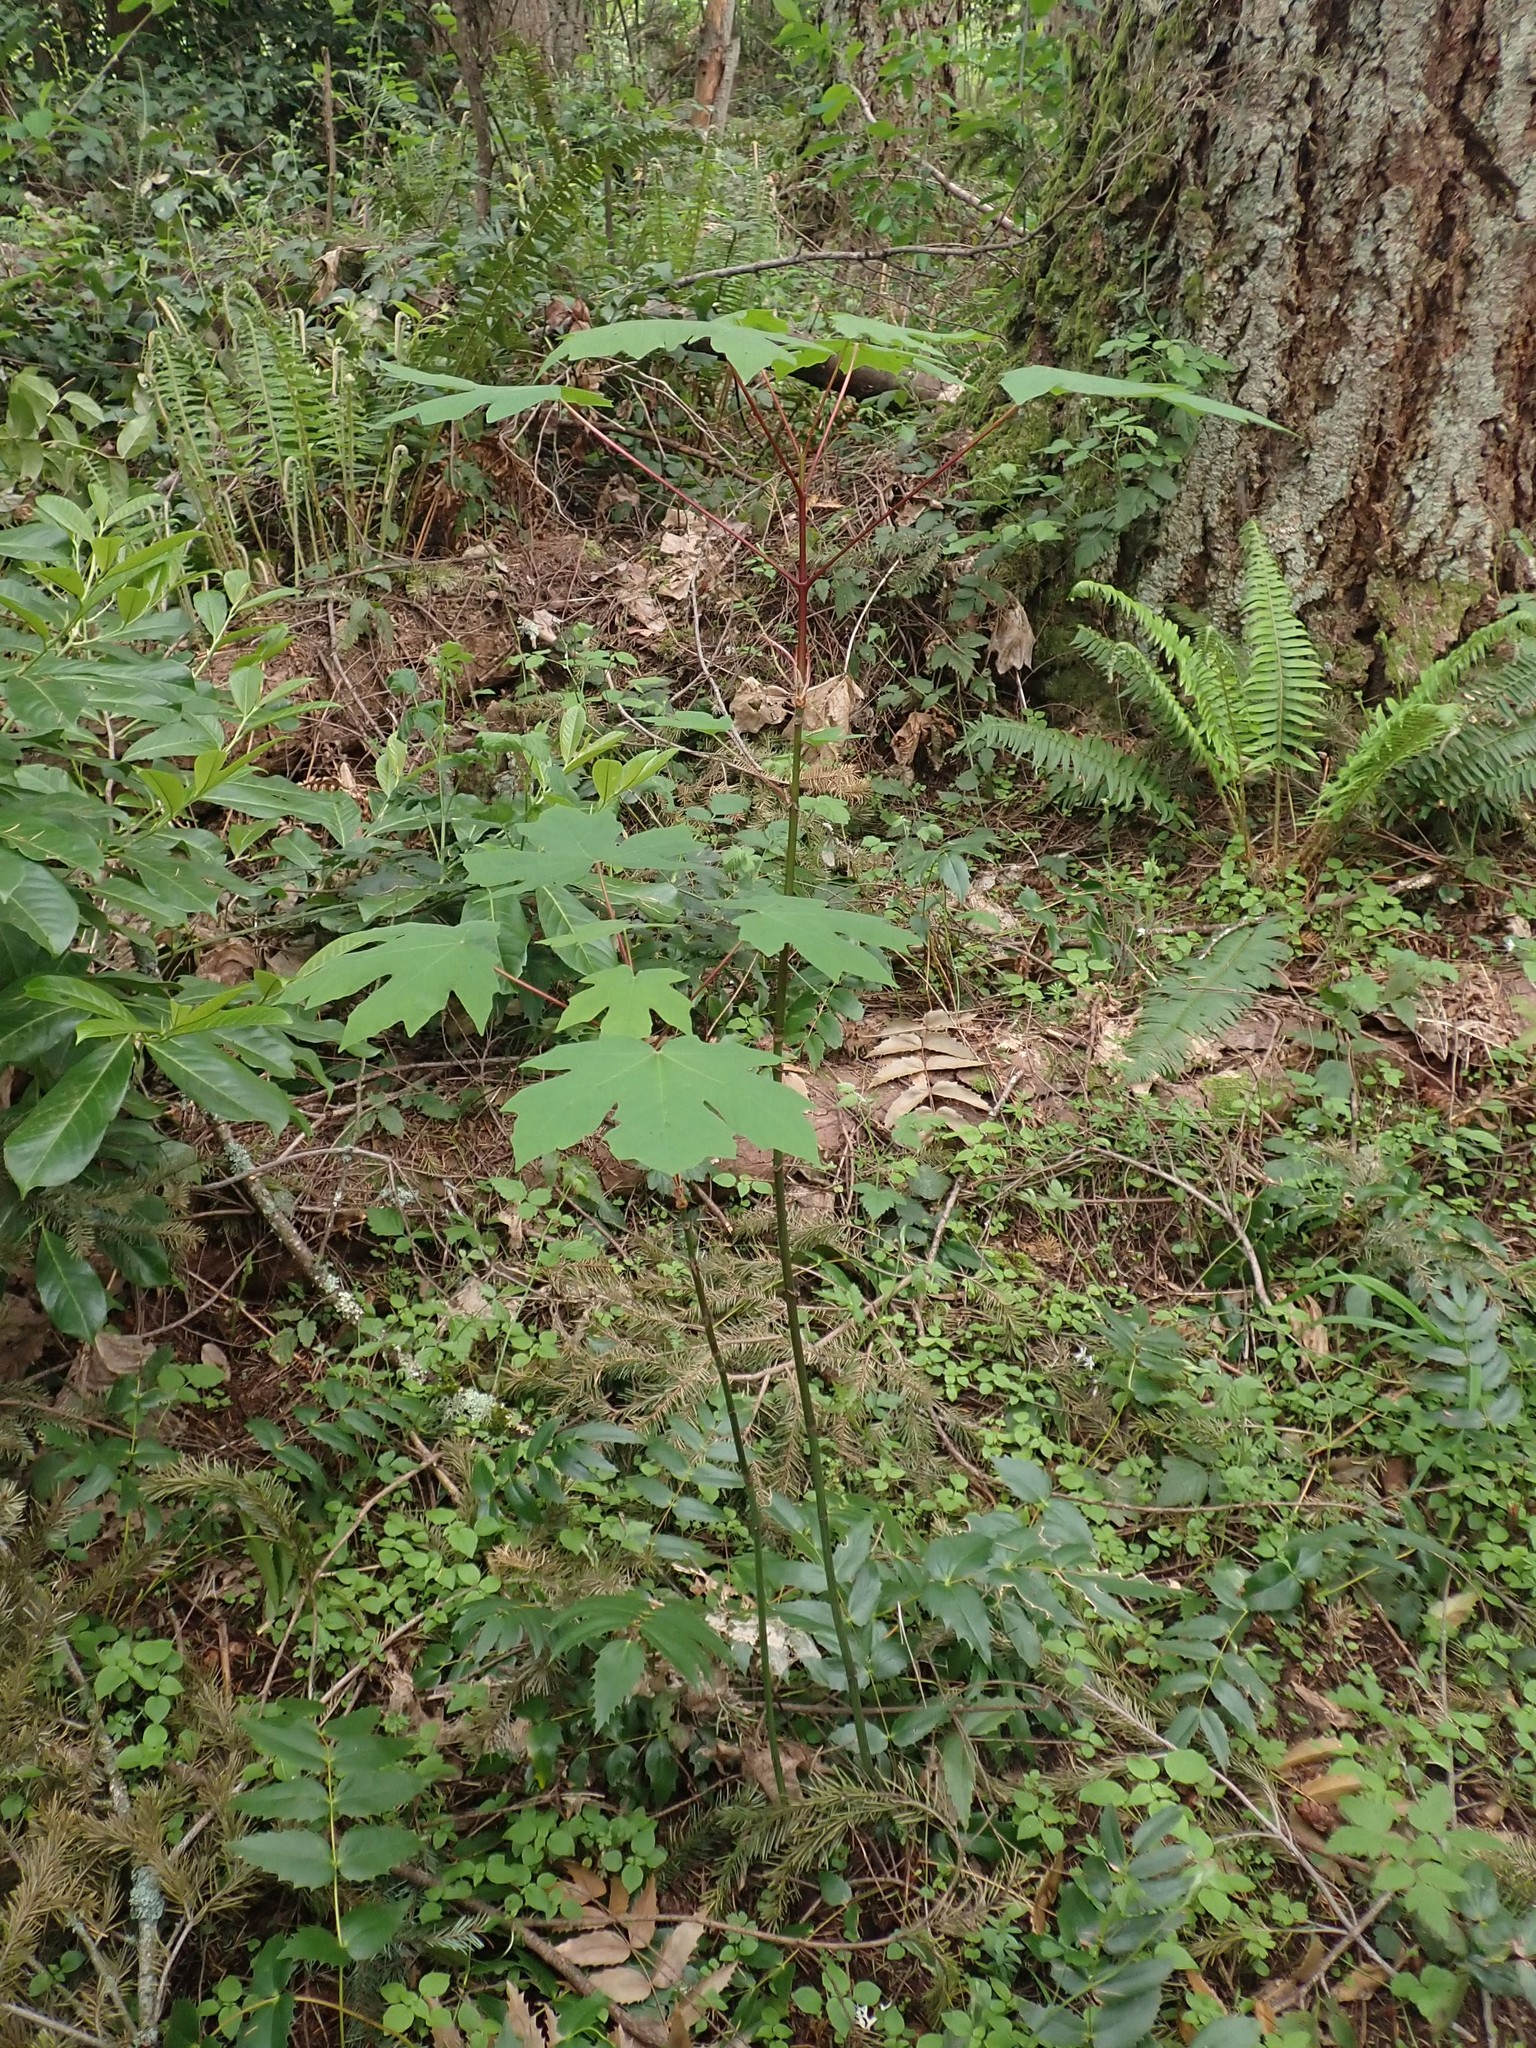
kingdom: Plantae
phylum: Tracheophyta
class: Magnoliopsida
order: Sapindales
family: Sapindaceae
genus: Acer
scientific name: Acer macrophyllum
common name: Oregon maple
